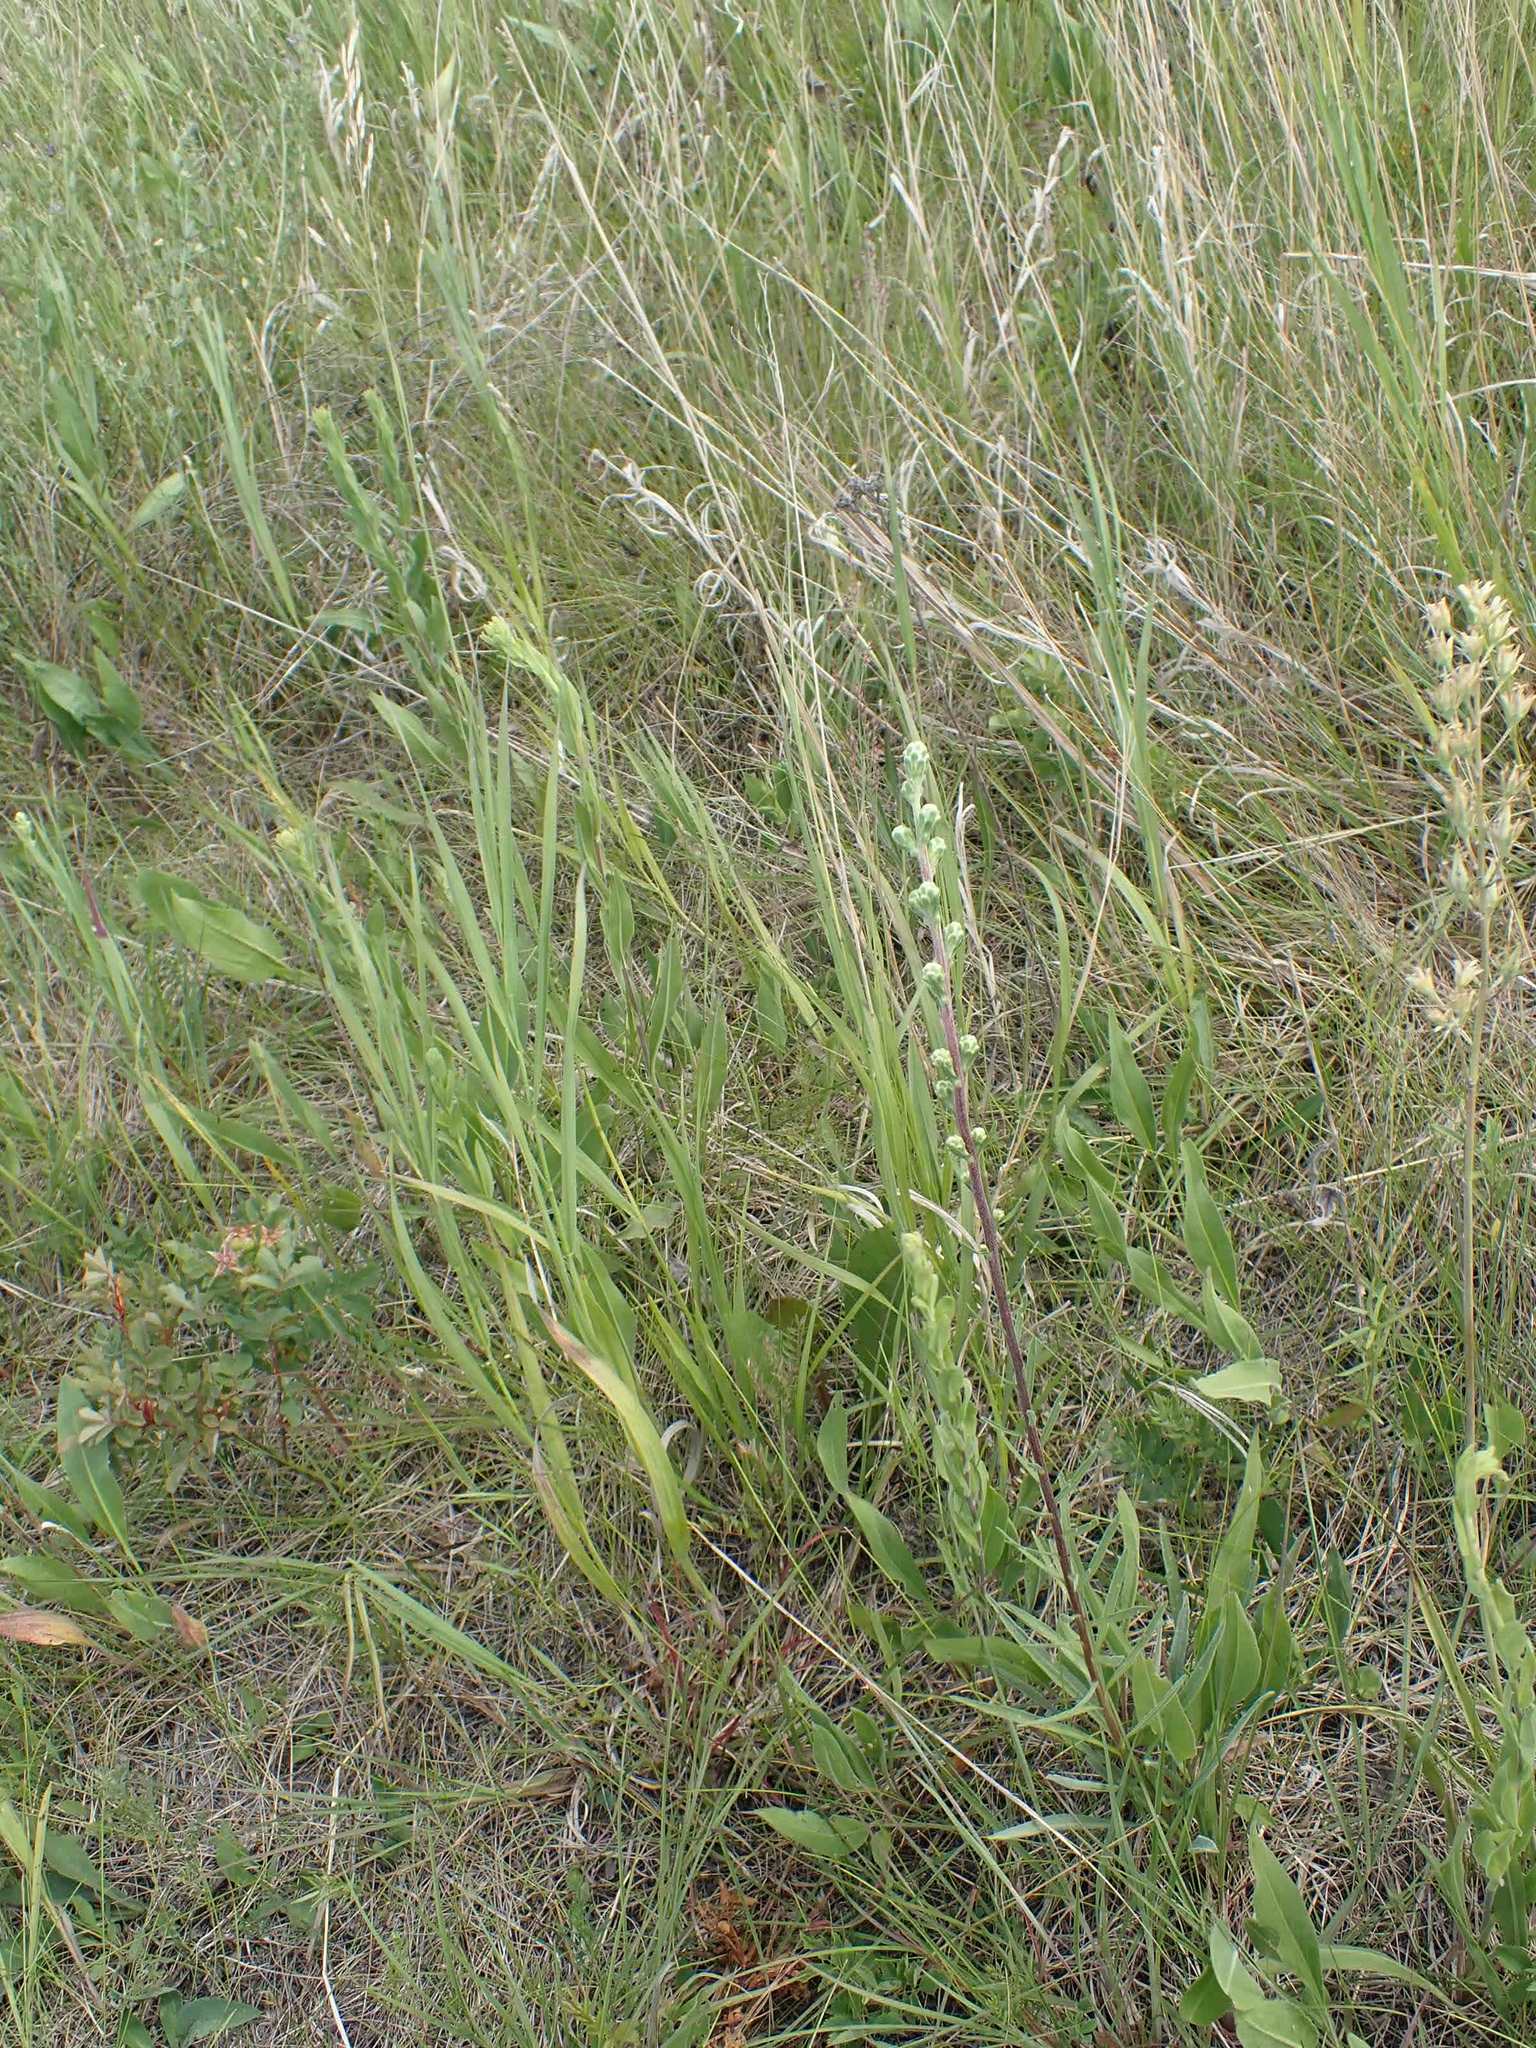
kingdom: Plantae
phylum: Tracheophyta
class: Magnoliopsida
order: Asterales
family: Asteraceae
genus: Liatris
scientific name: Liatris ligulistylis
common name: Northern plains gayfeather
